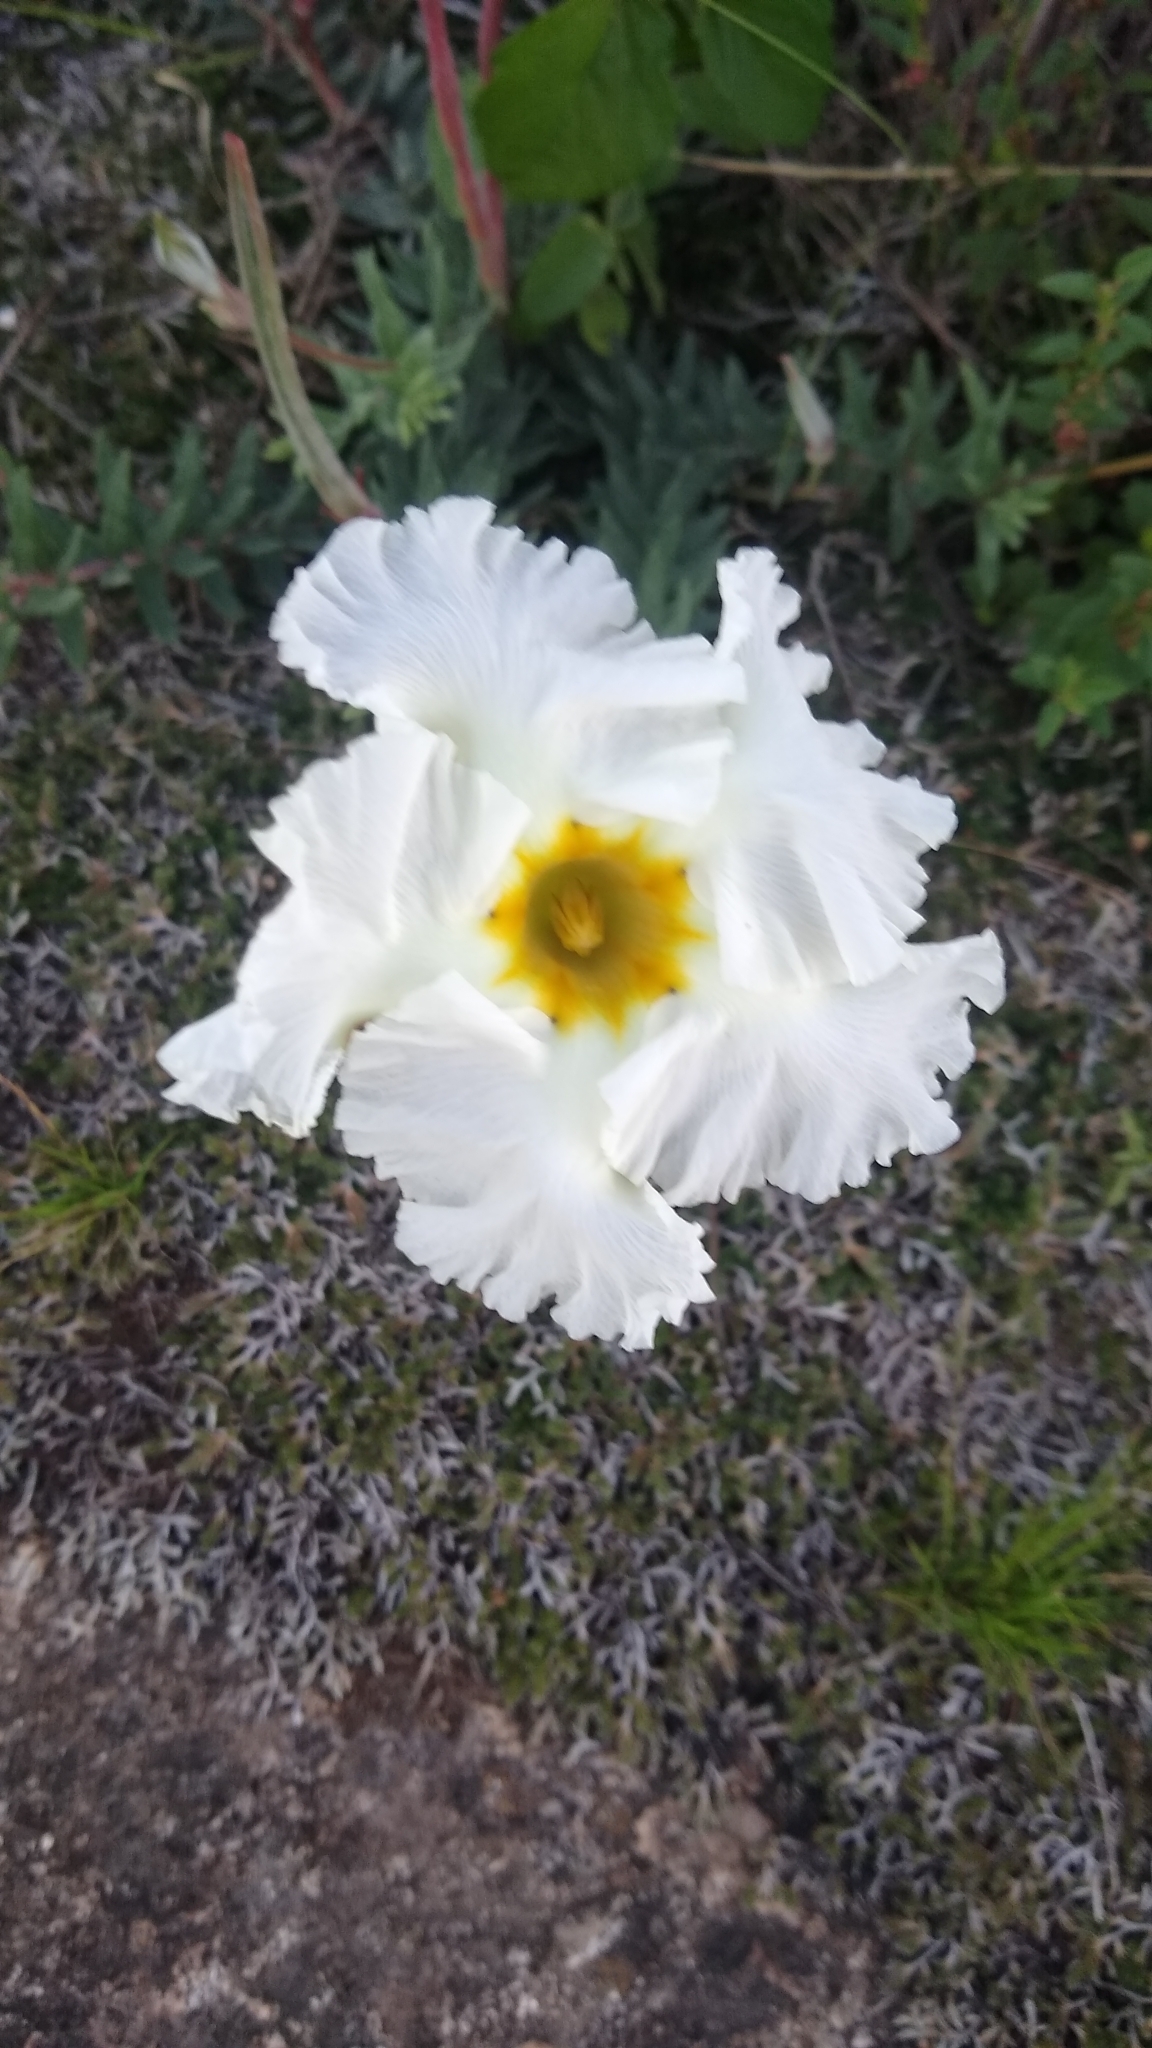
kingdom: Plantae
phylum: Tracheophyta
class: Magnoliopsida
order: Gentianales
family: Apocynaceae
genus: Mandevilla
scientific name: Mandevilla petraea
